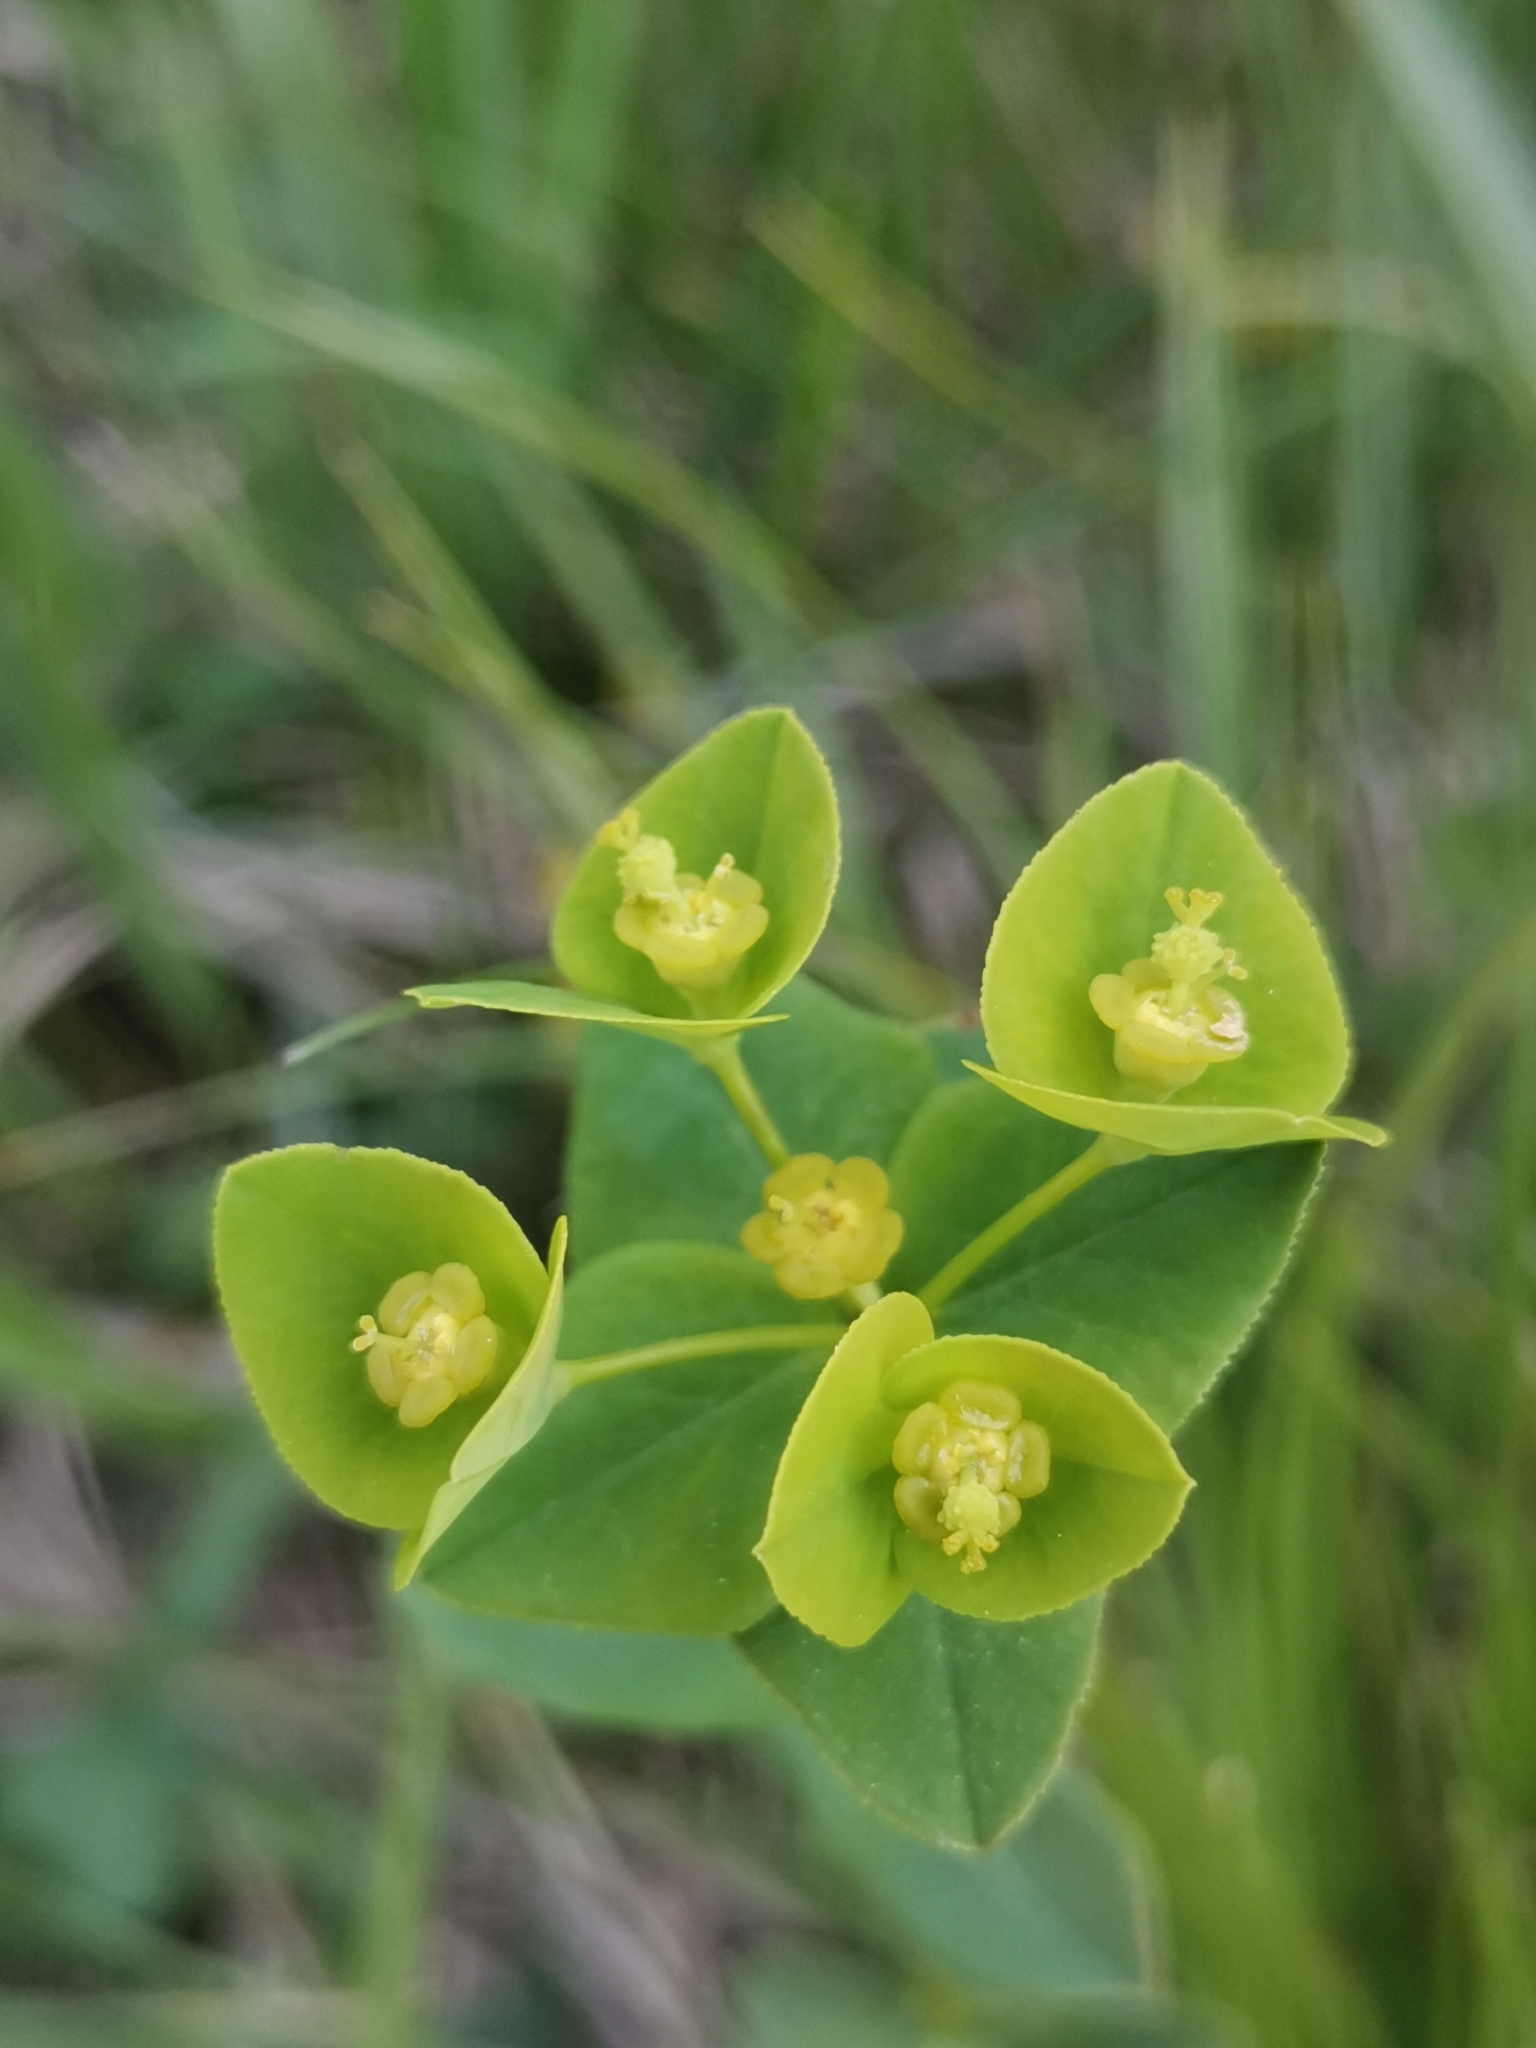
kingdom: Plantae
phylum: Tracheophyta
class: Magnoliopsida
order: Malpighiales
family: Euphorbiaceae
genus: Euphorbia
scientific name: Euphorbia angulata
